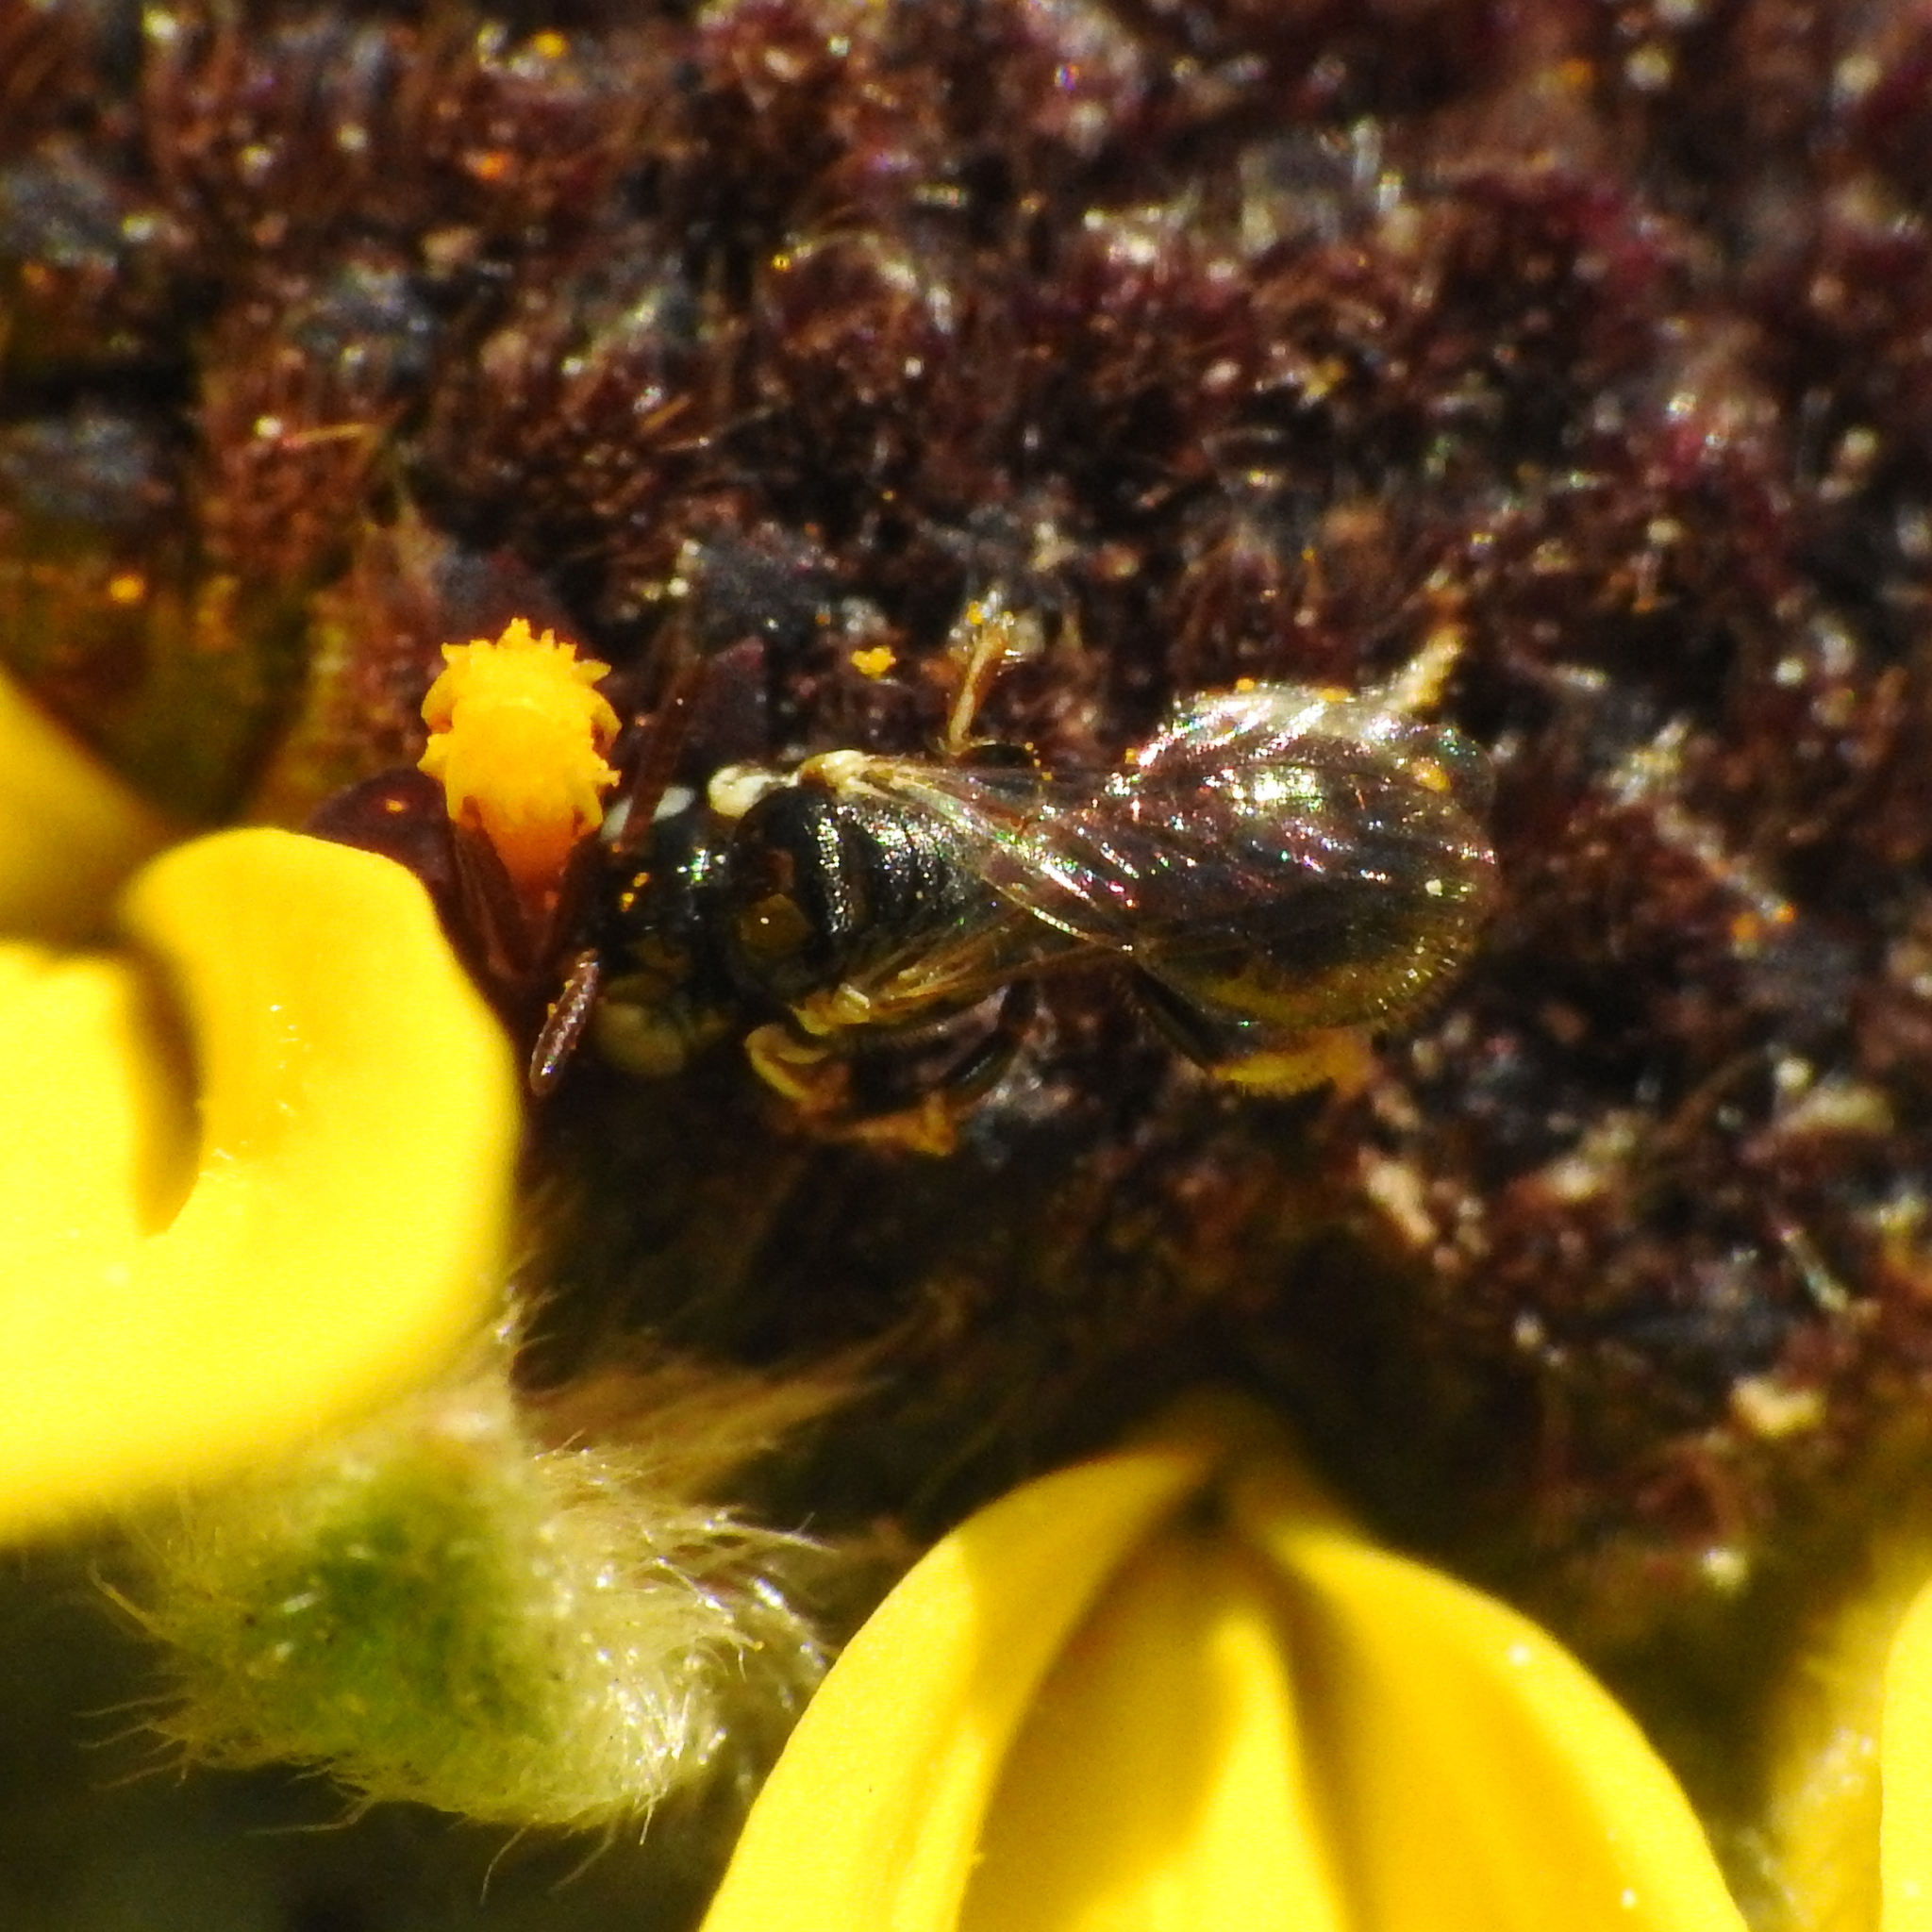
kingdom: Animalia
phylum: Arthropoda
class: Insecta
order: Hymenoptera
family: Apidae
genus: Ceratina
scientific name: Ceratina arizonensis
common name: Arizona small carpenter bee
